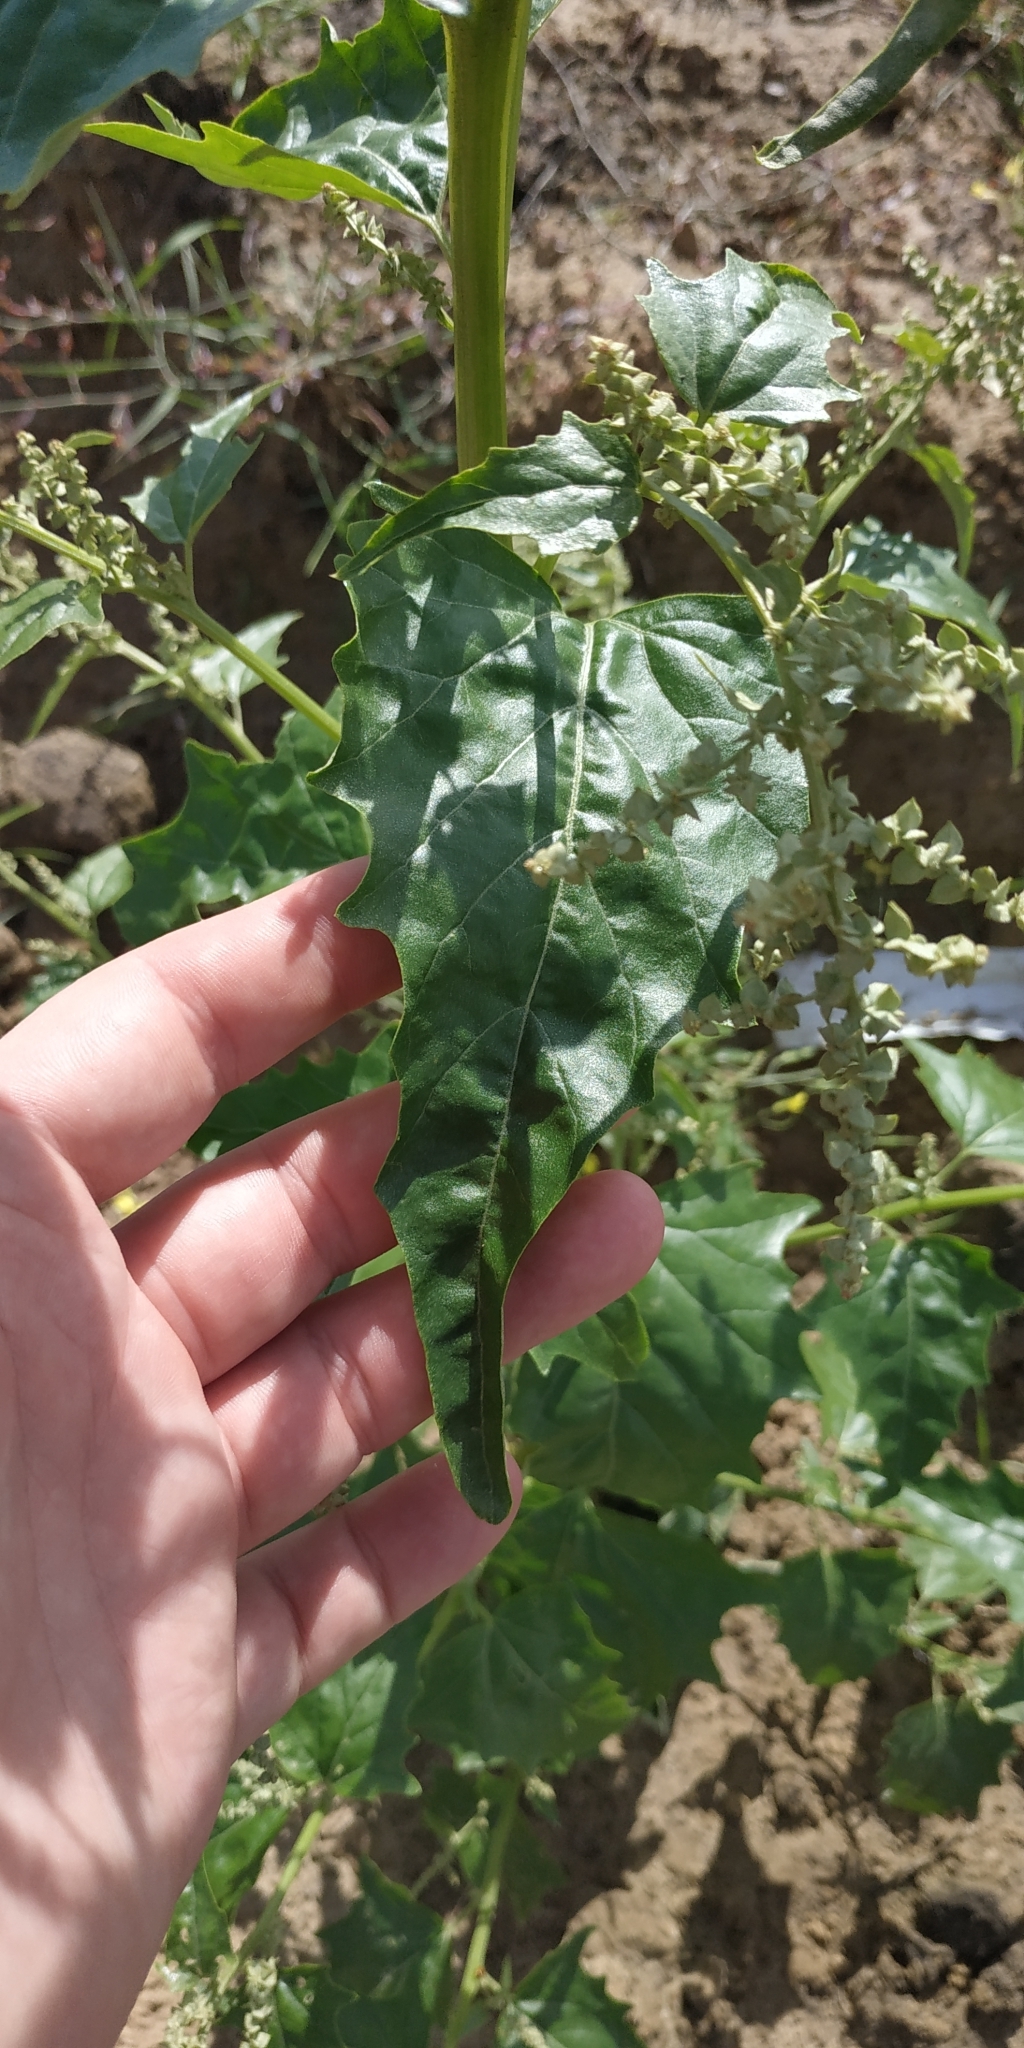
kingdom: Plantae
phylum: Tracheophyta
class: Magnoliopsida
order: Caryophyllales
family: Amaranthaceae
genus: Atriplex
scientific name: Atriplex sagittata
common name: Purple orache
